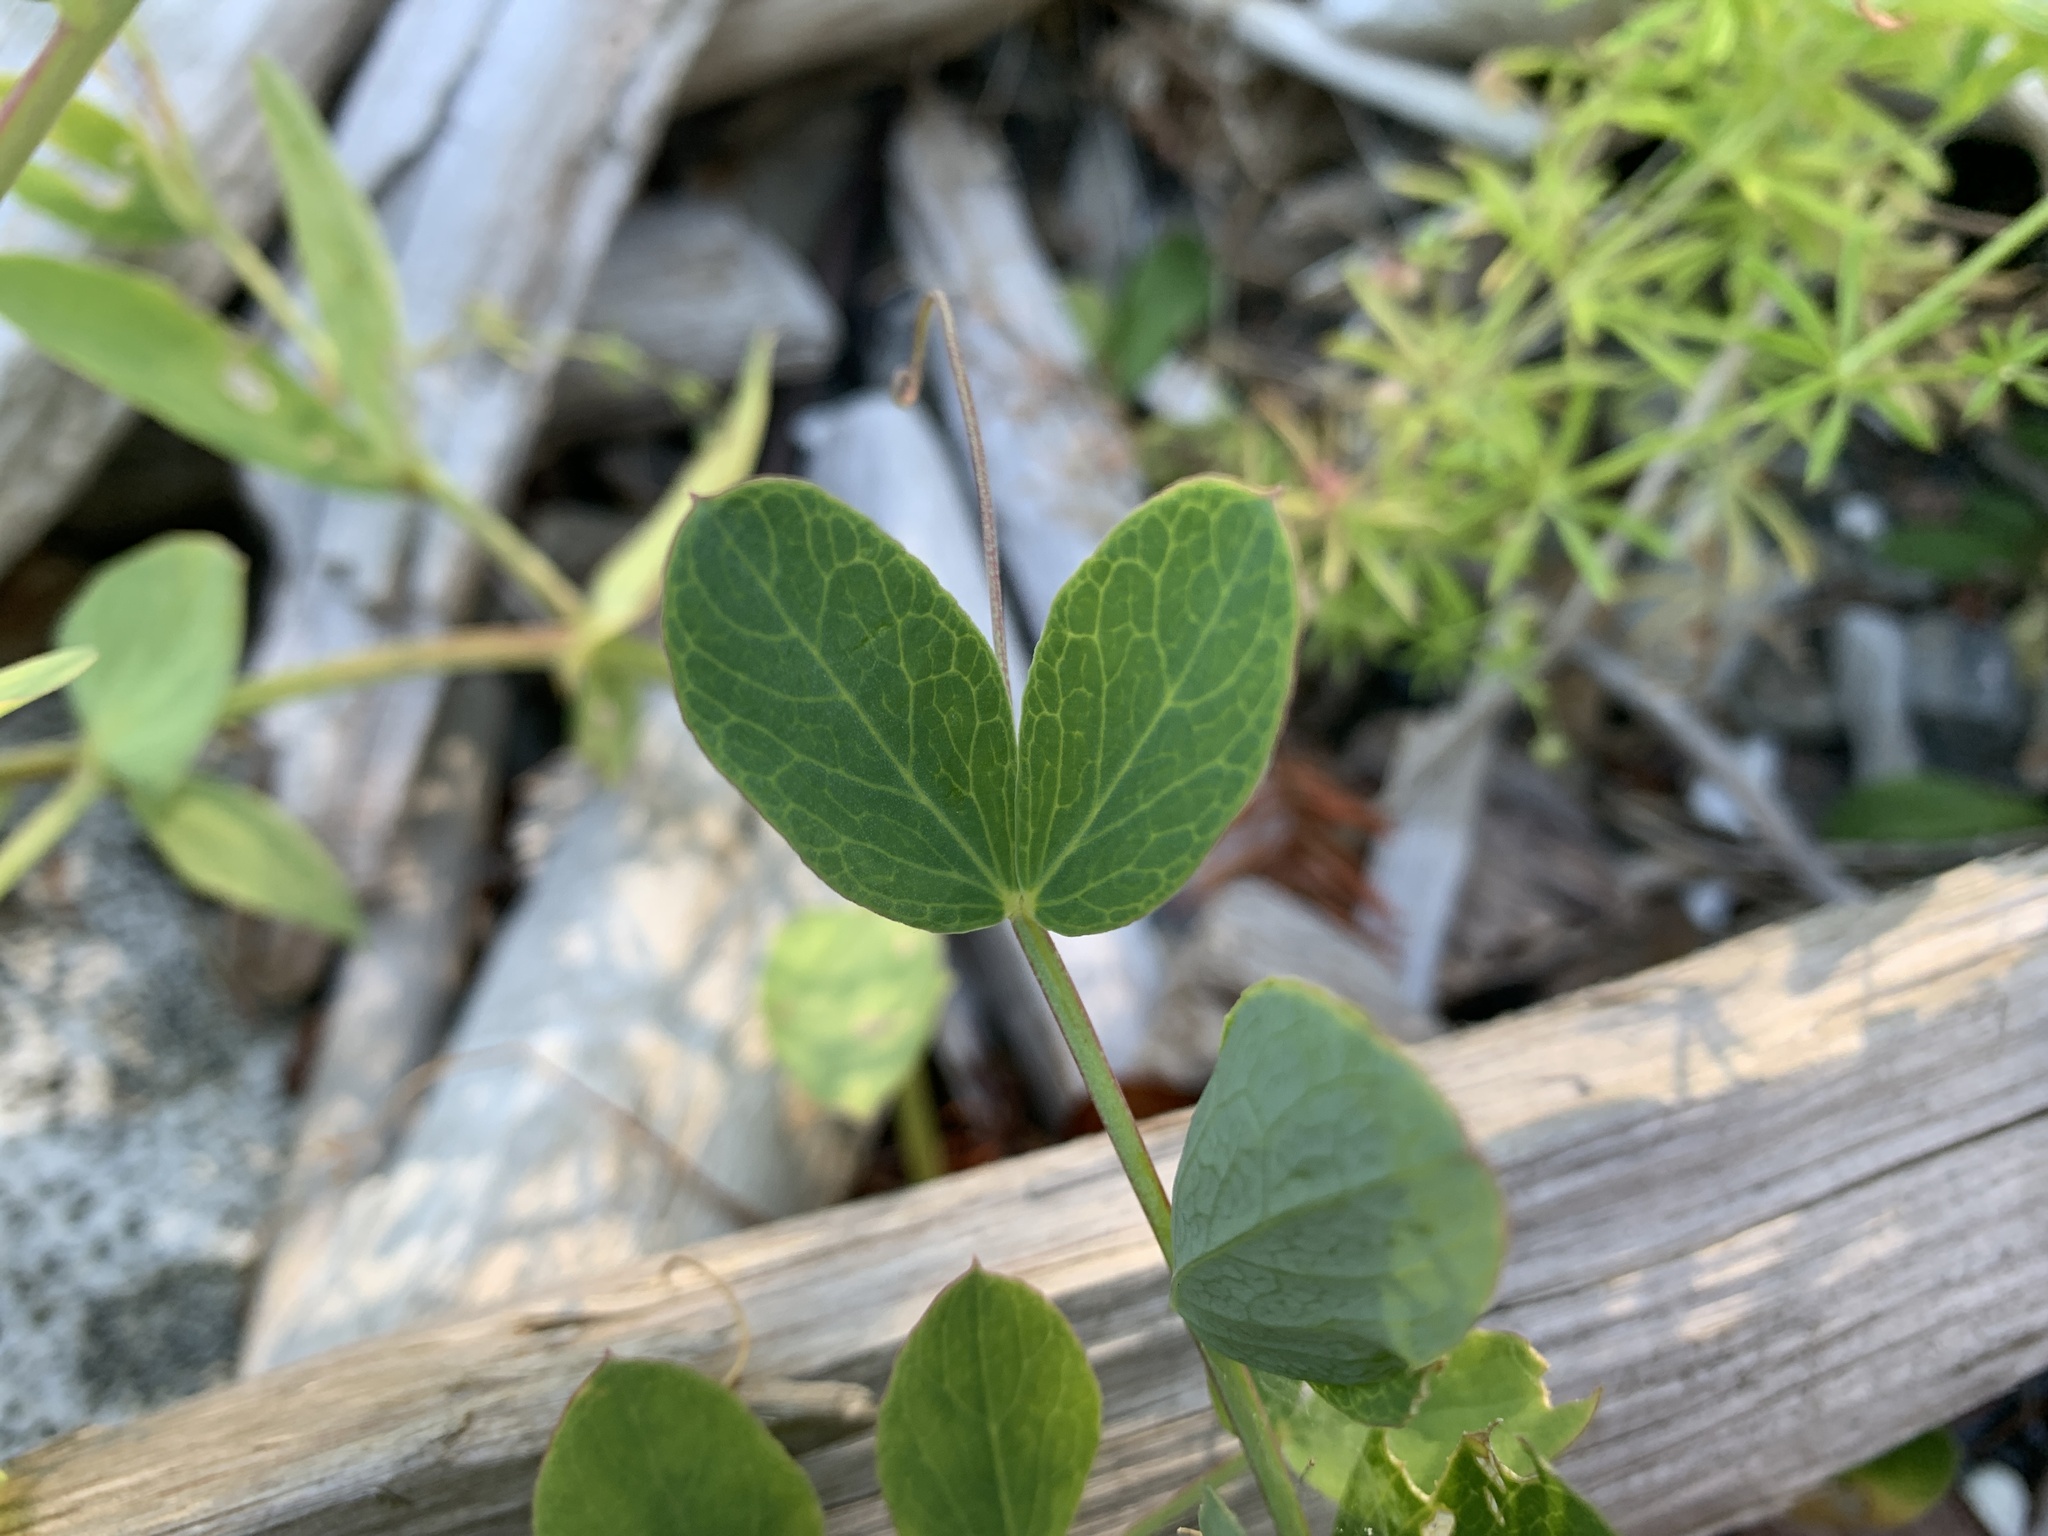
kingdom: Plantae
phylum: Tracheophyta
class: Magnoliopsida
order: Fabales
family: Fabaceae
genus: Lathyrus
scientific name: Lathyrus japonicus
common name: Sea pea
